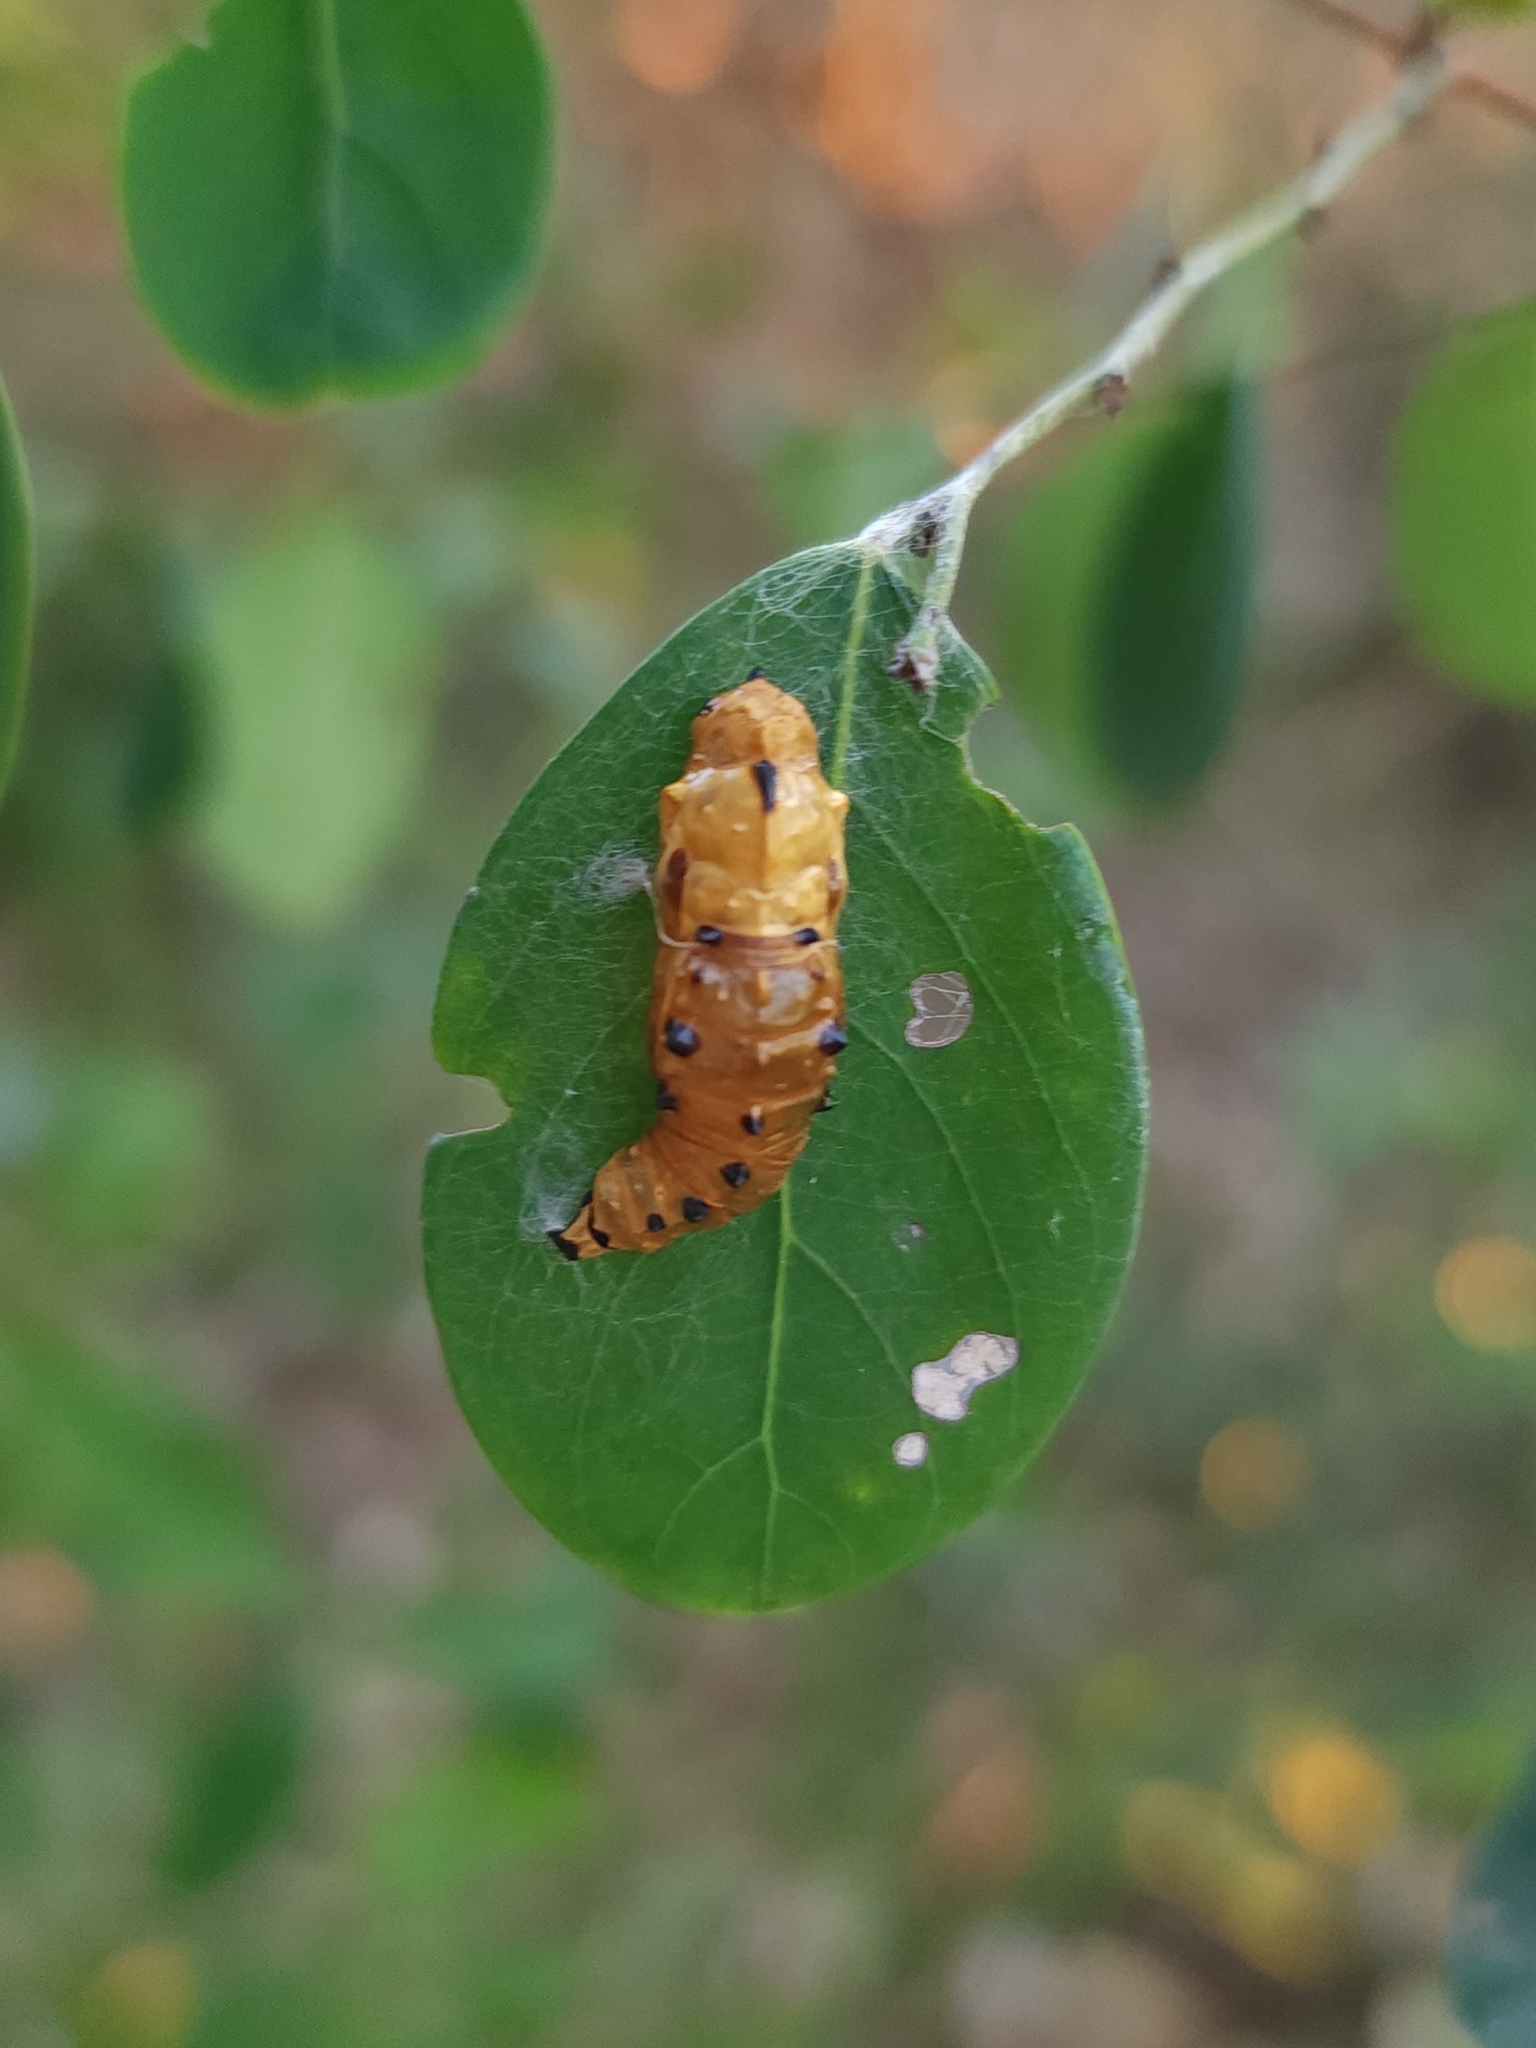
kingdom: Animalia
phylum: Arthropoda
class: Insecta
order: Lepidoptera
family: Pieridae
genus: Delias
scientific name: Delias argenthona
